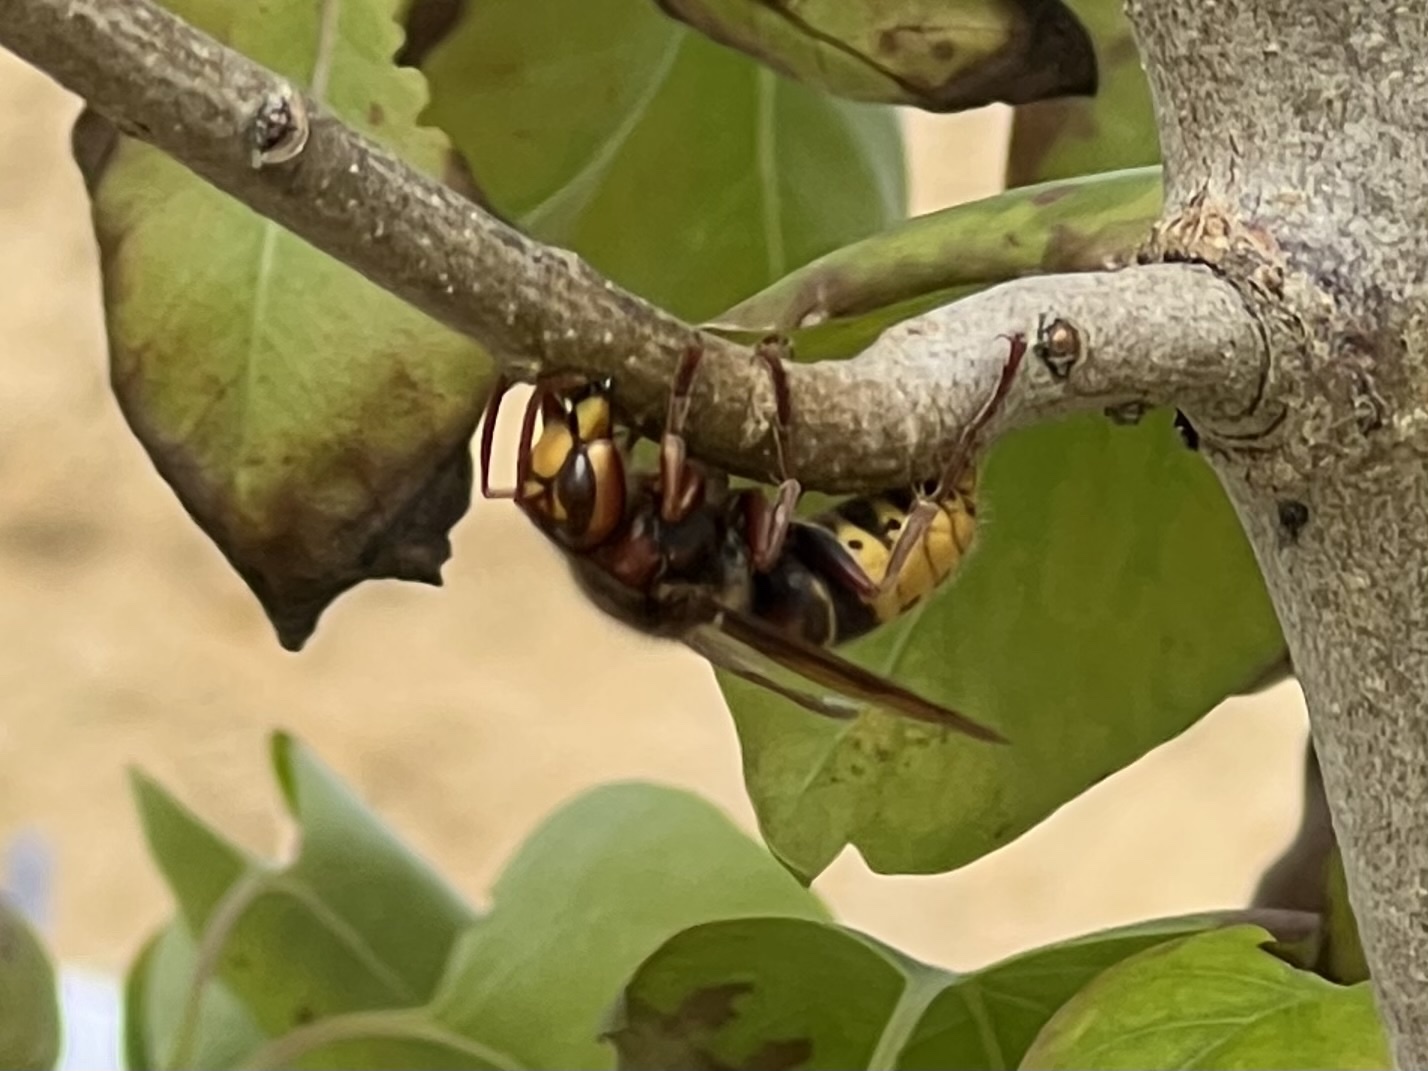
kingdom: Animalia
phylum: Arthropoda
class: Insecta
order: Hymenoptera
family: Vespidae
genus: Vespa
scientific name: Vespa crabro
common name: Hornet
